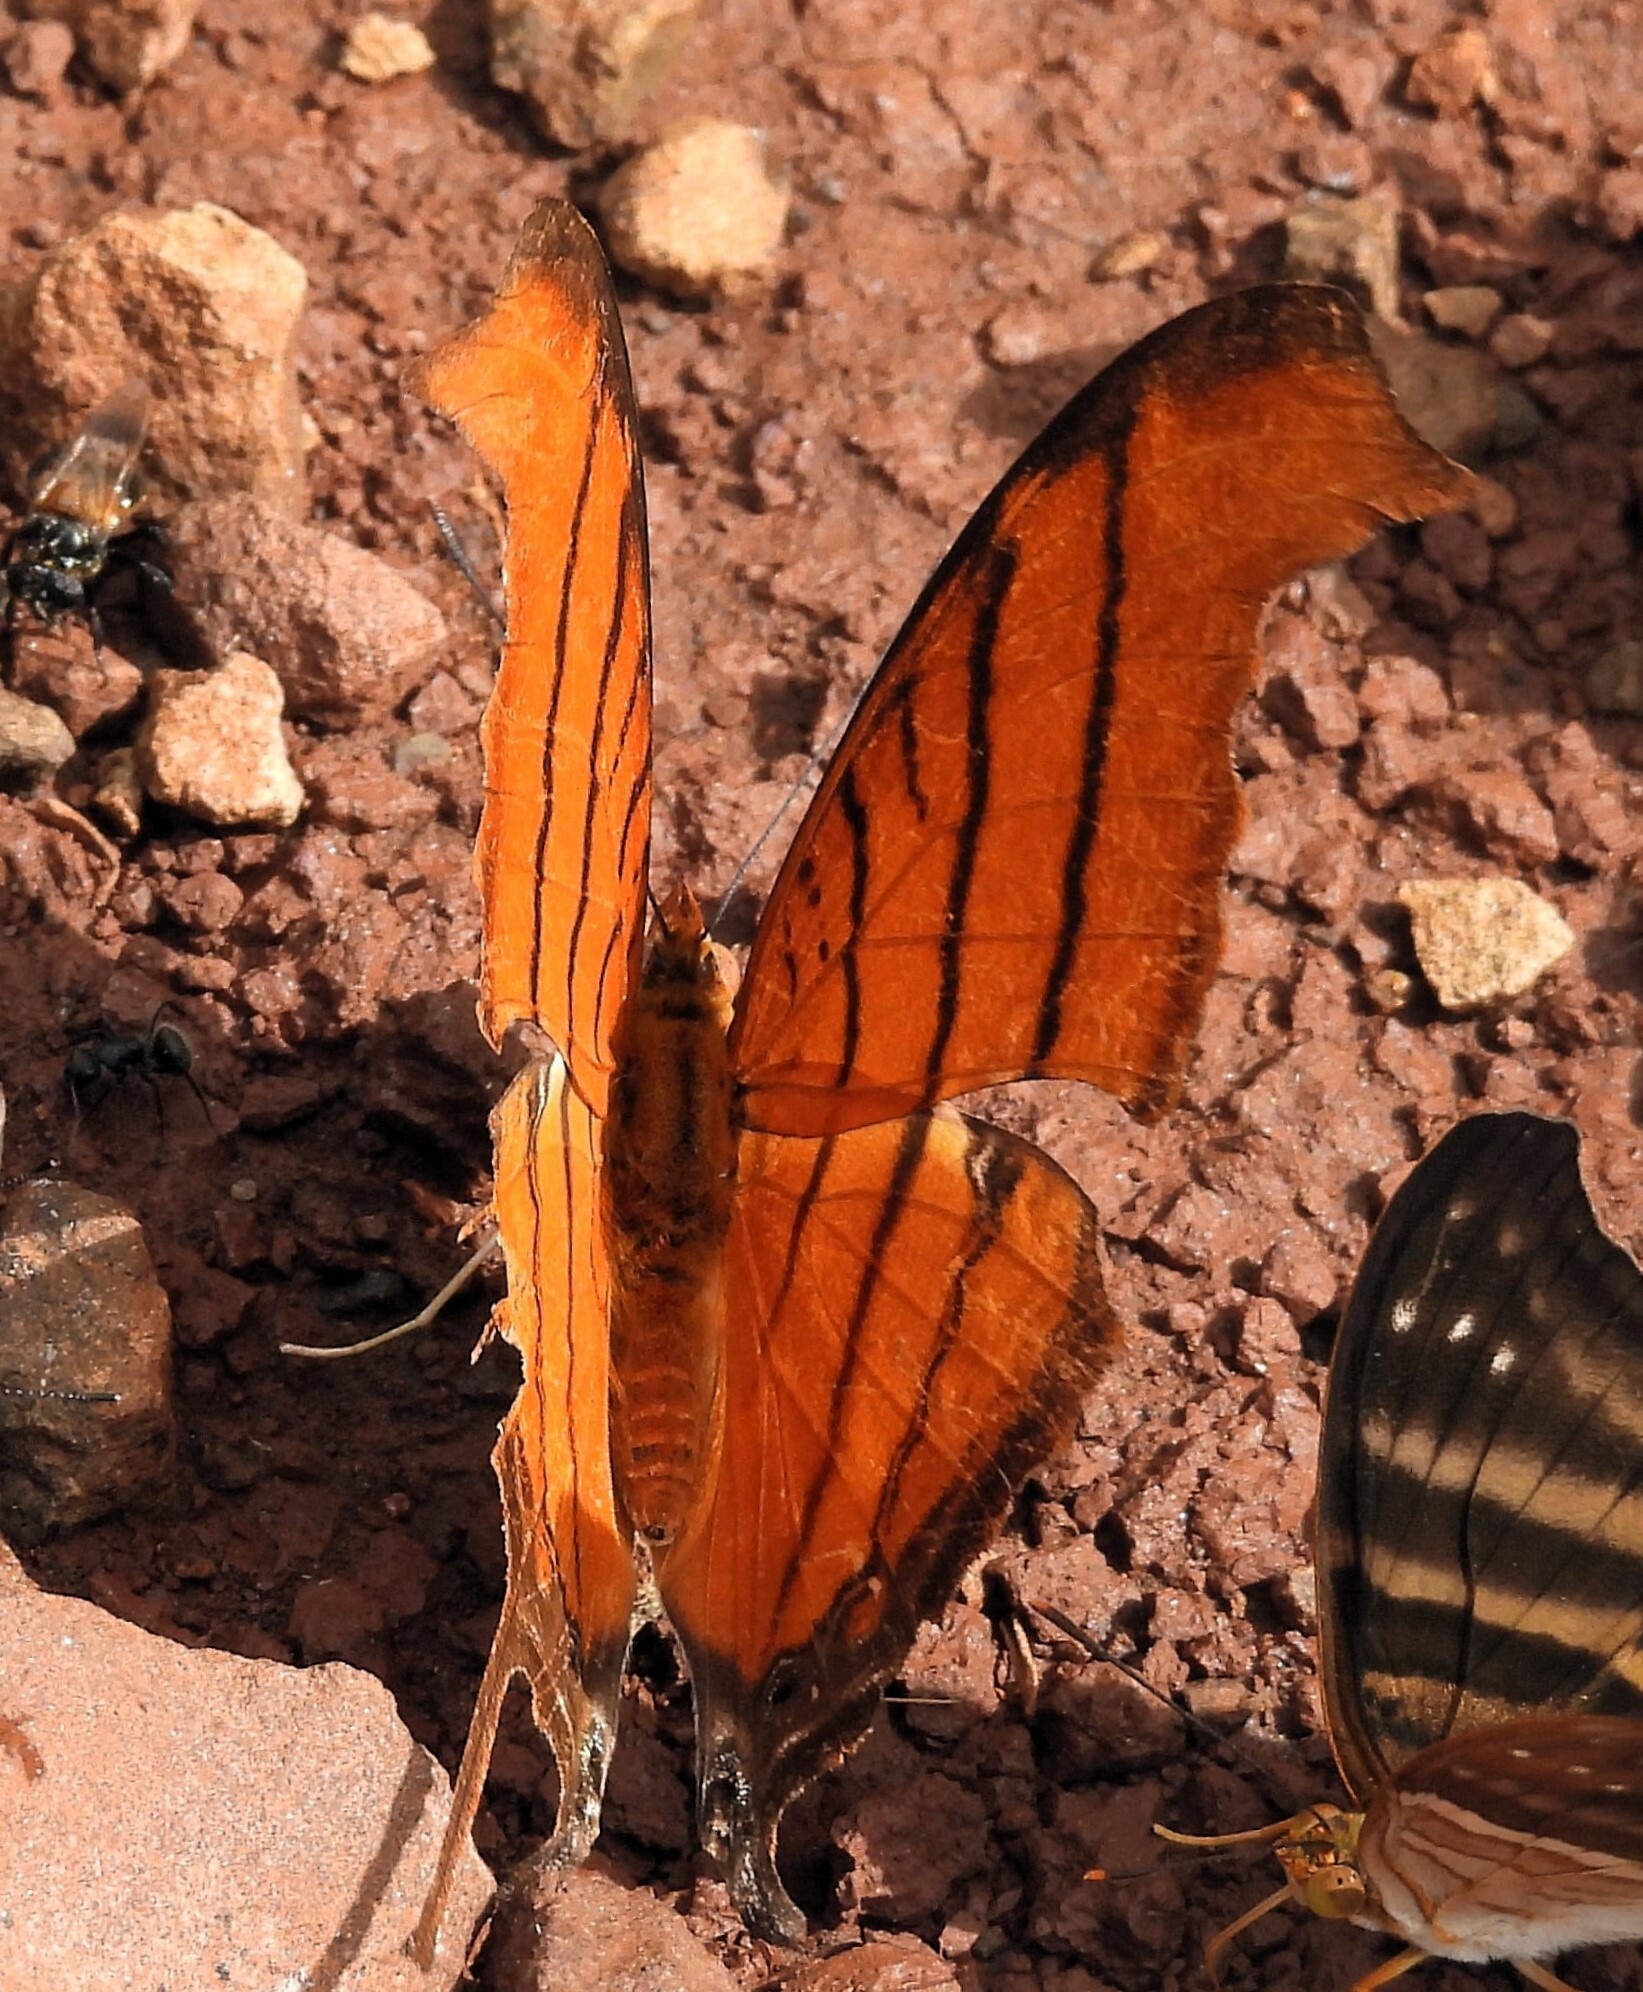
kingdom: Animalia
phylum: Arthropoda
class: Insecta
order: Lepidoptera
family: Nymphalidae
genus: Marpesia
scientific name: Marpesia petreus
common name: Red dagger wing
